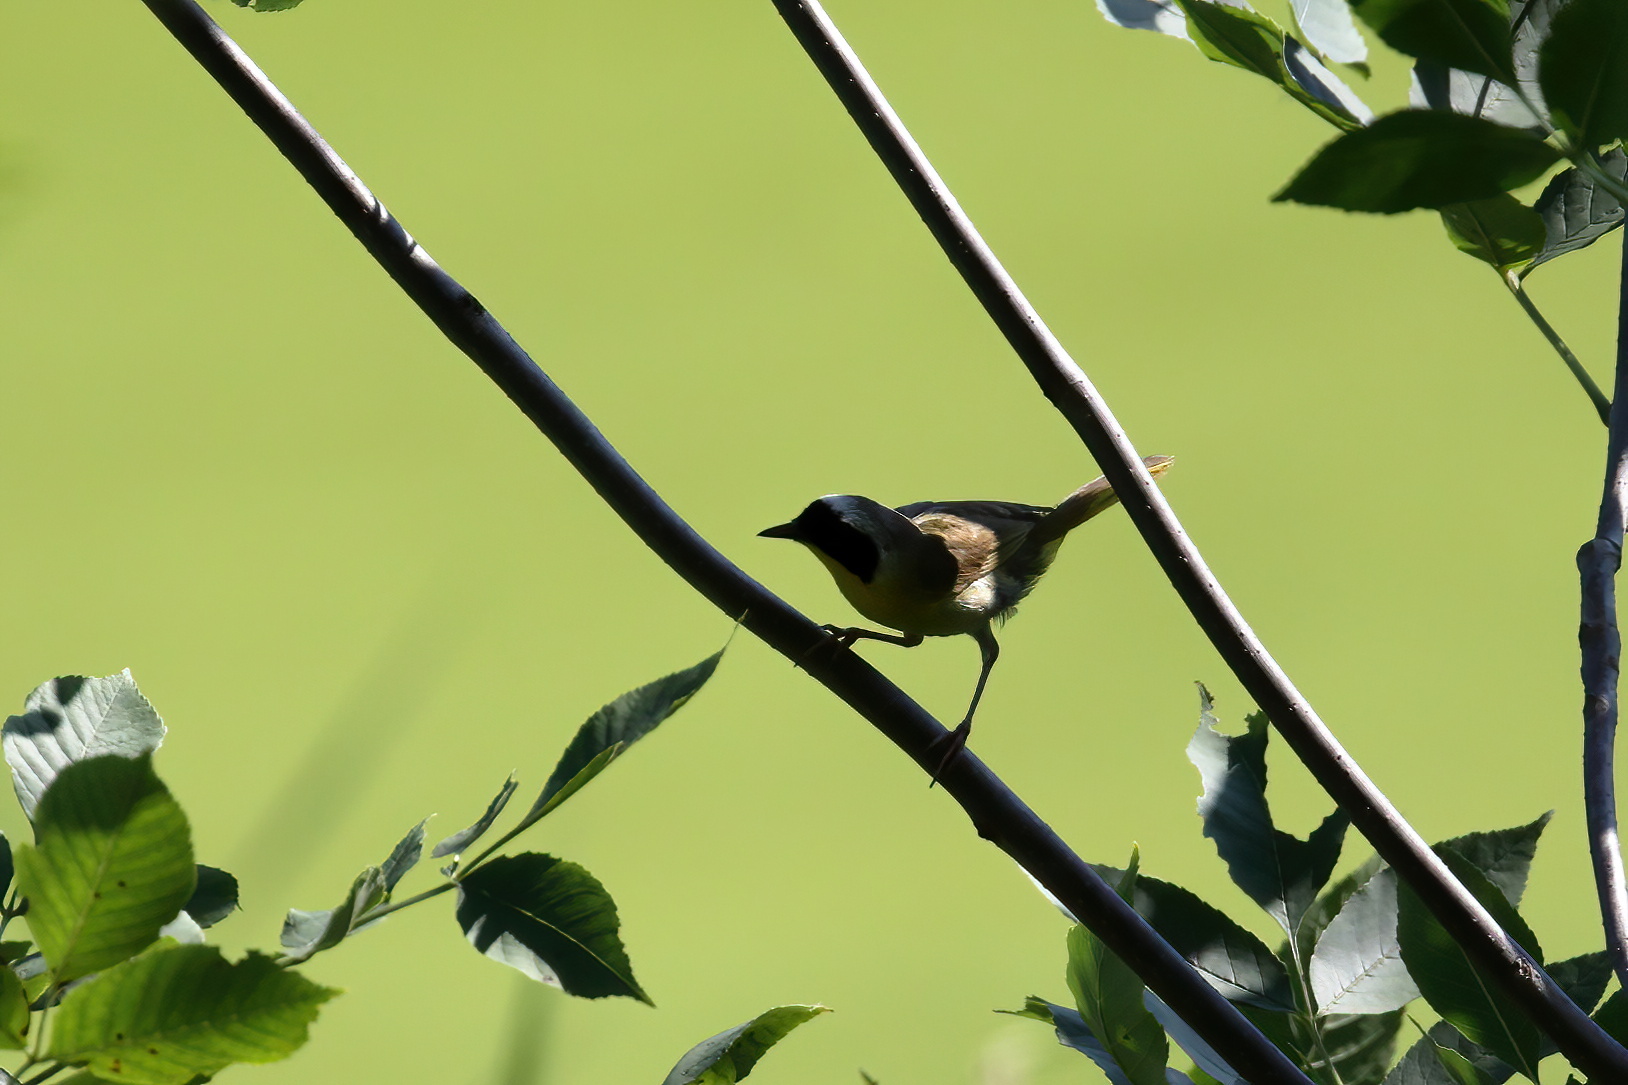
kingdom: Animalia
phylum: Chordata
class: Aves
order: Passeriformes
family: Parulidae
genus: Geothlypis
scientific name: Geothlypis trichas
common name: Common yellowthroat
